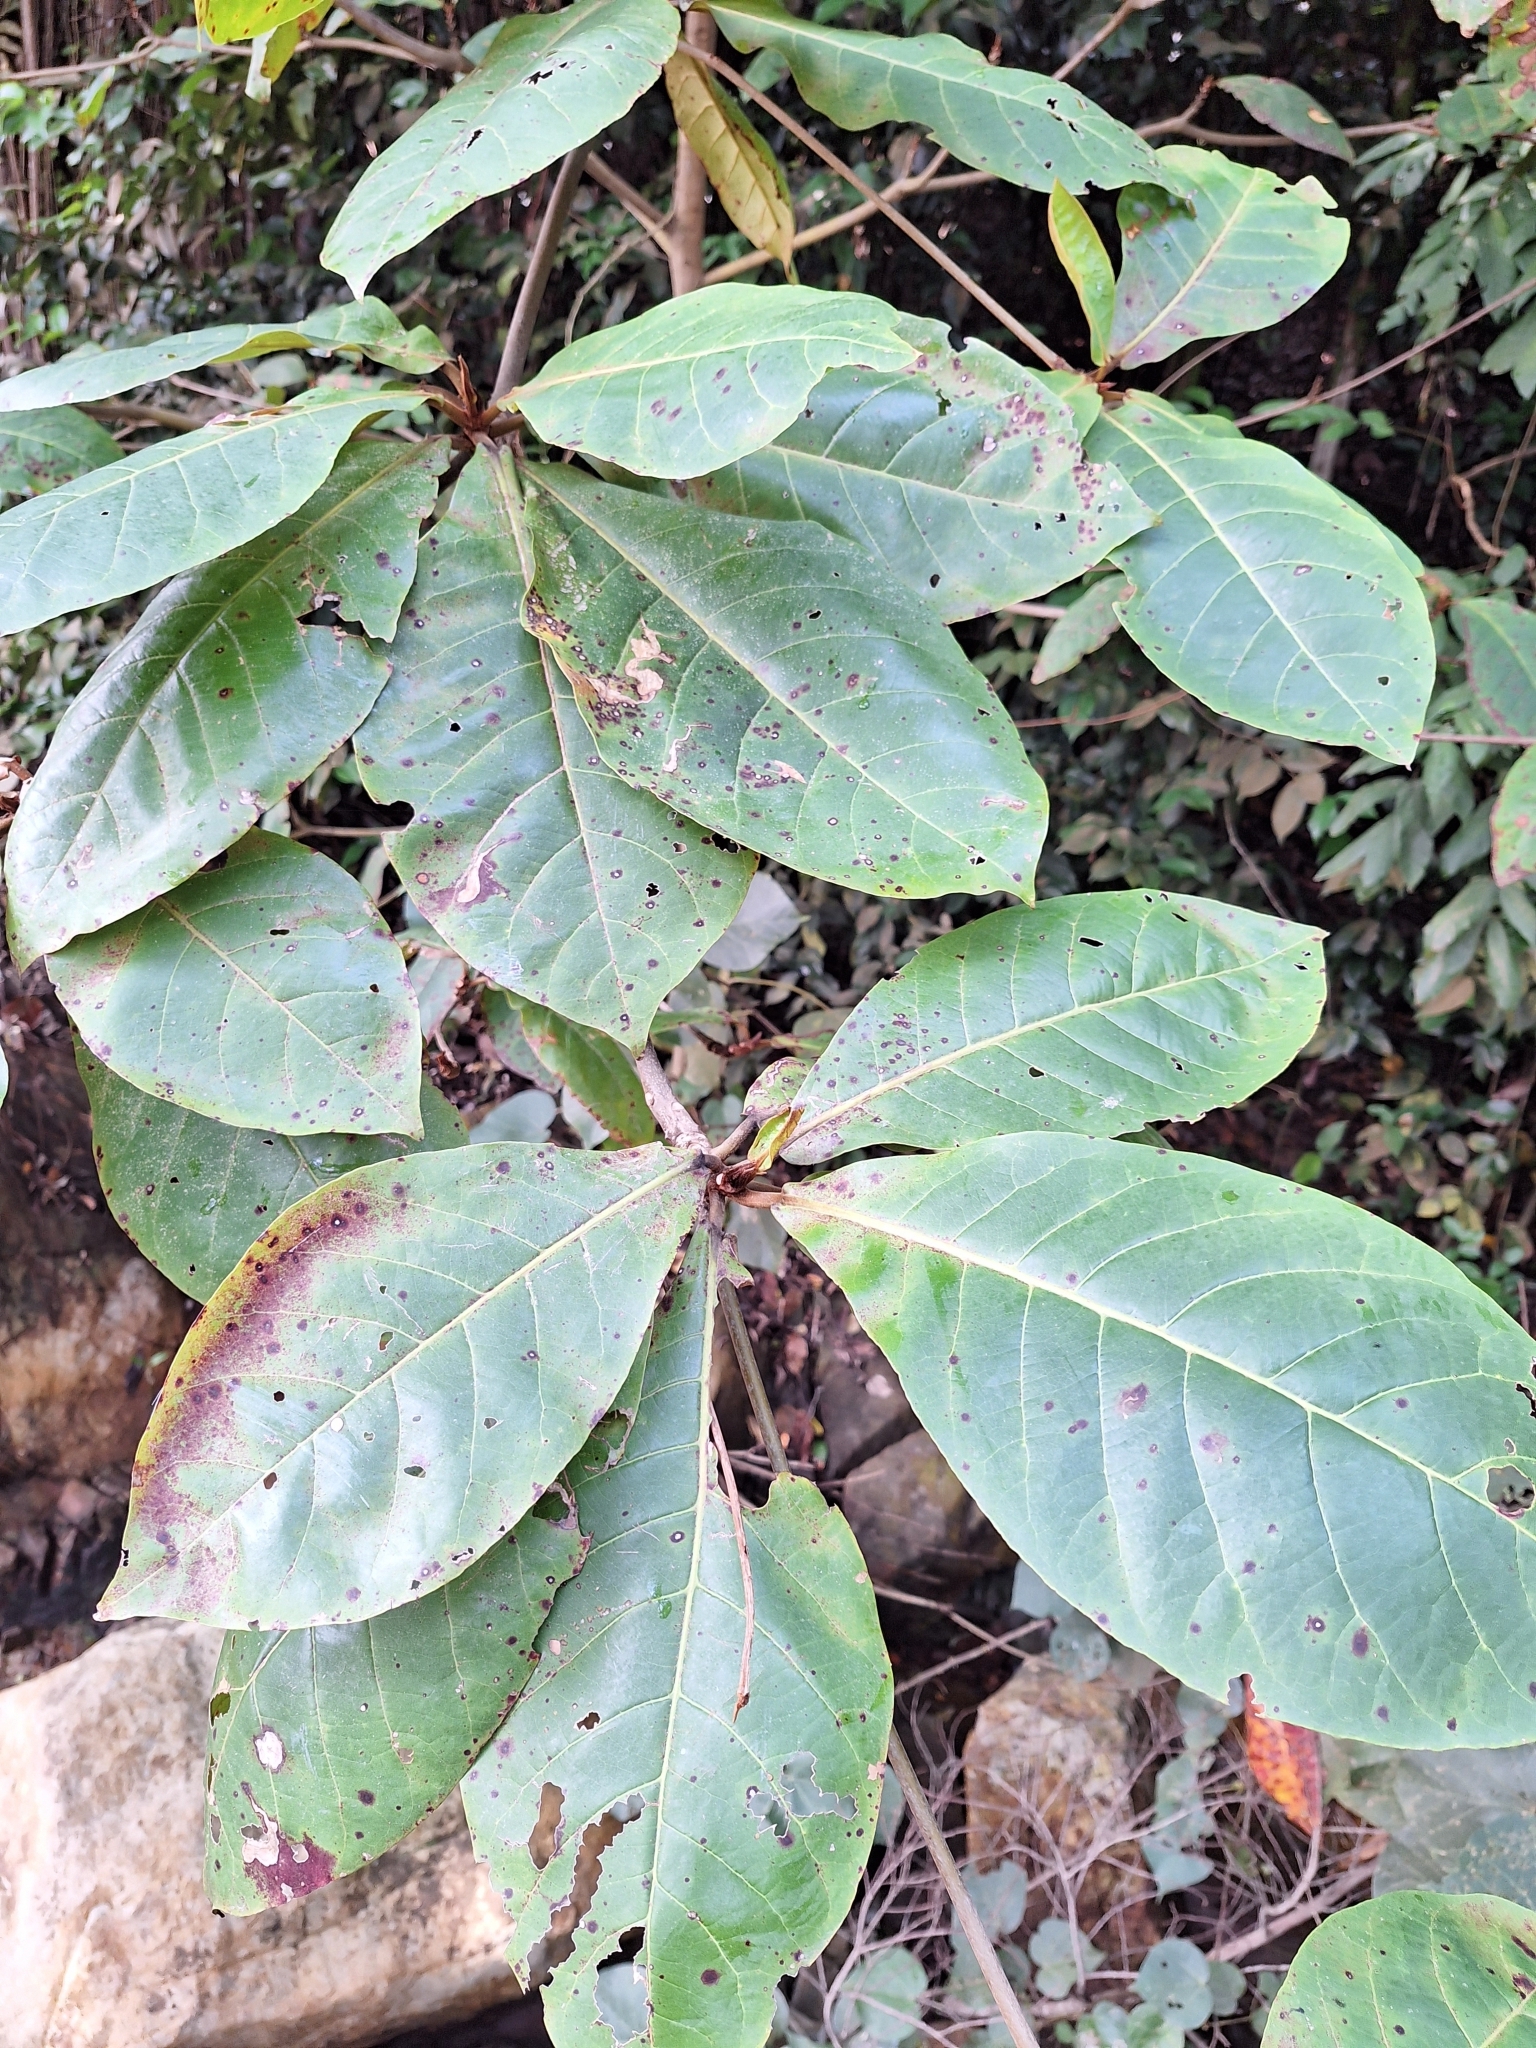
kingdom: Plantae
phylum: Tracheophyta
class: Magnoliopsida
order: Myrtales
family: Combretaceae
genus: Terminalia
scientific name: Terminalia catappa
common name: Tropical almond
